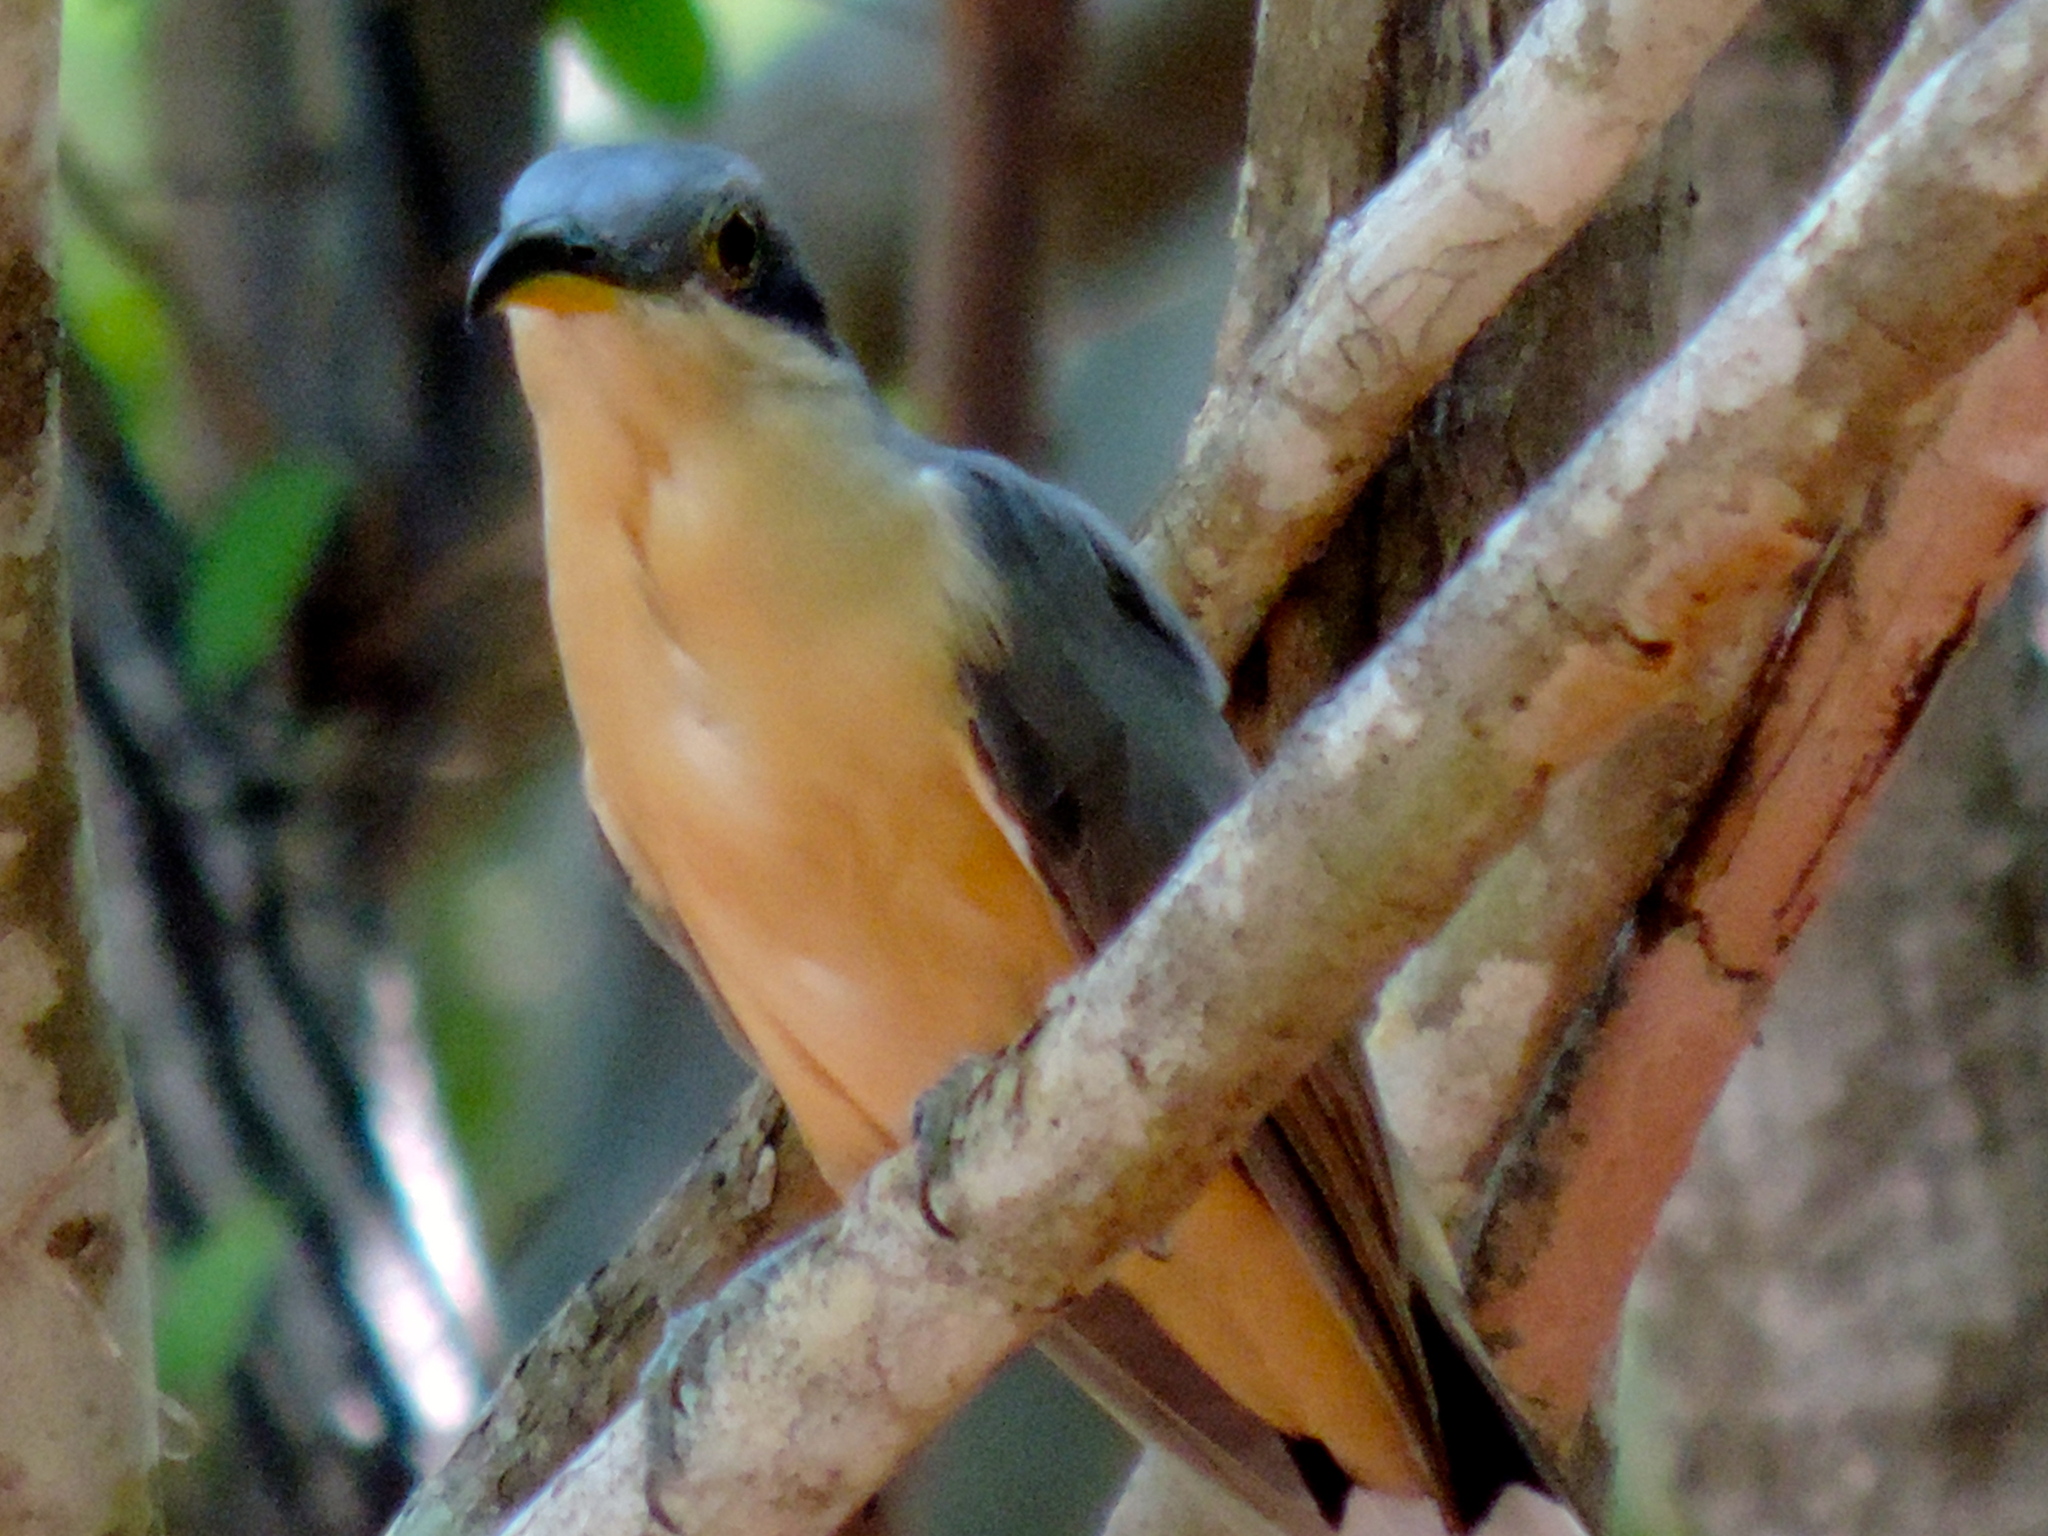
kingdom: Animalia
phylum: Chordata
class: Aves
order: Cuculiformes
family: Cuculidae
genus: Coccyzus
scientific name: Coccyzus minor
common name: Mangrove cuckoo
